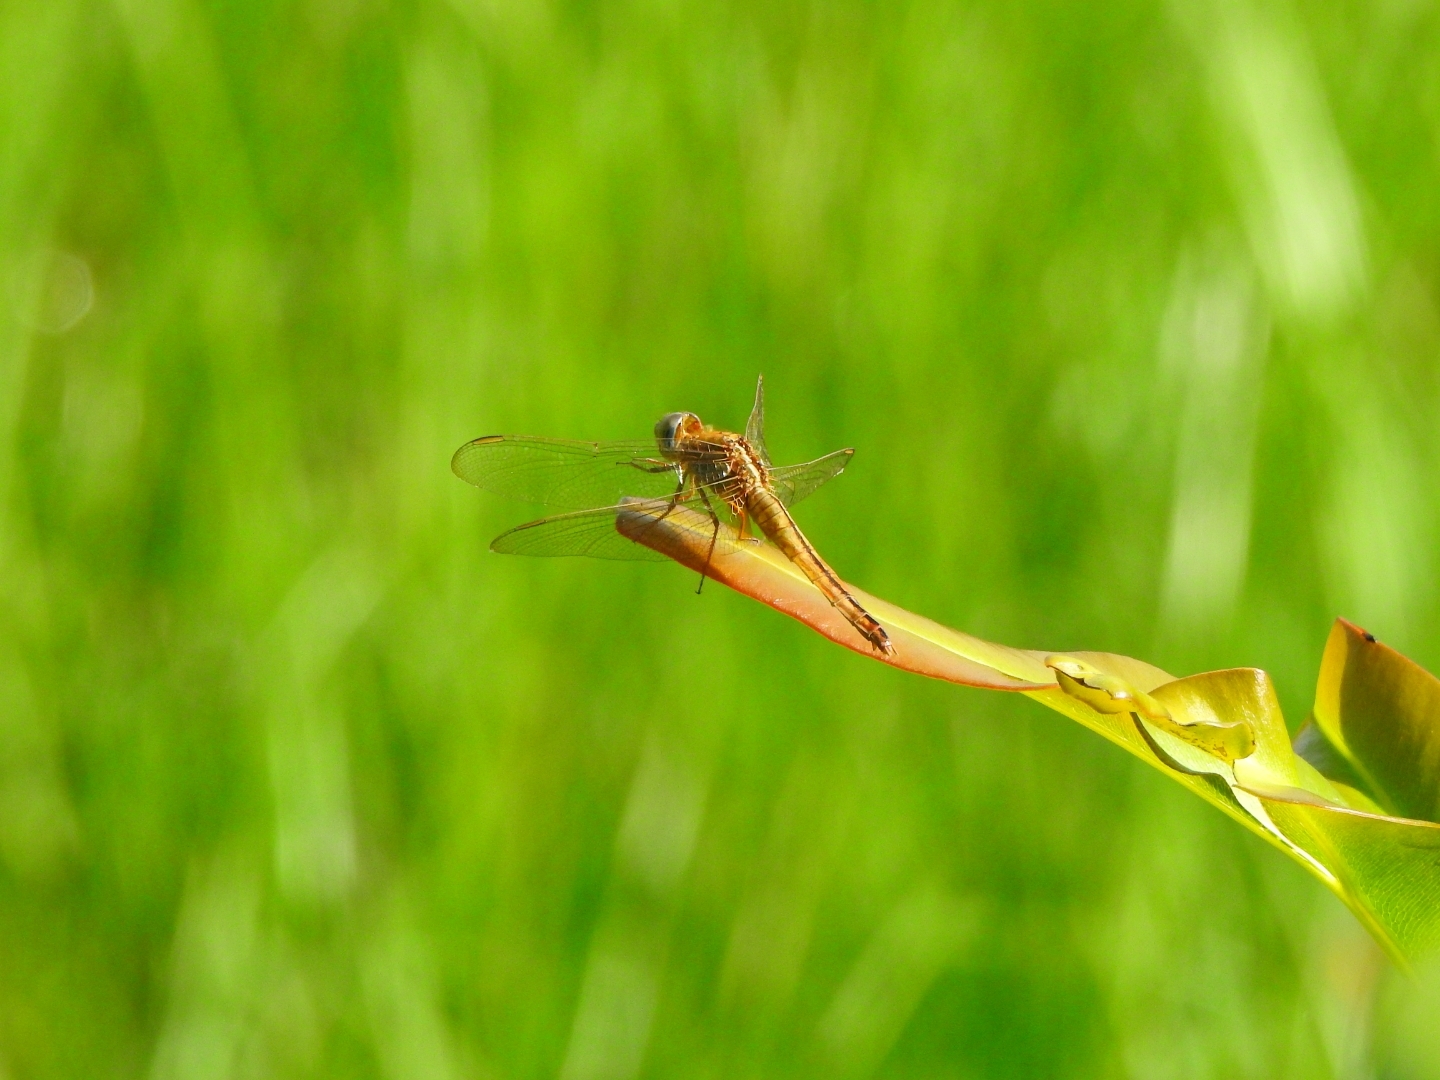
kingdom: Animalia
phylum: Arthropoda
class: Insecta
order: Odonata
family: Libellulidae
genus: Crocothemis
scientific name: Crocothemis servilia
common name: Scarlet skimmer
